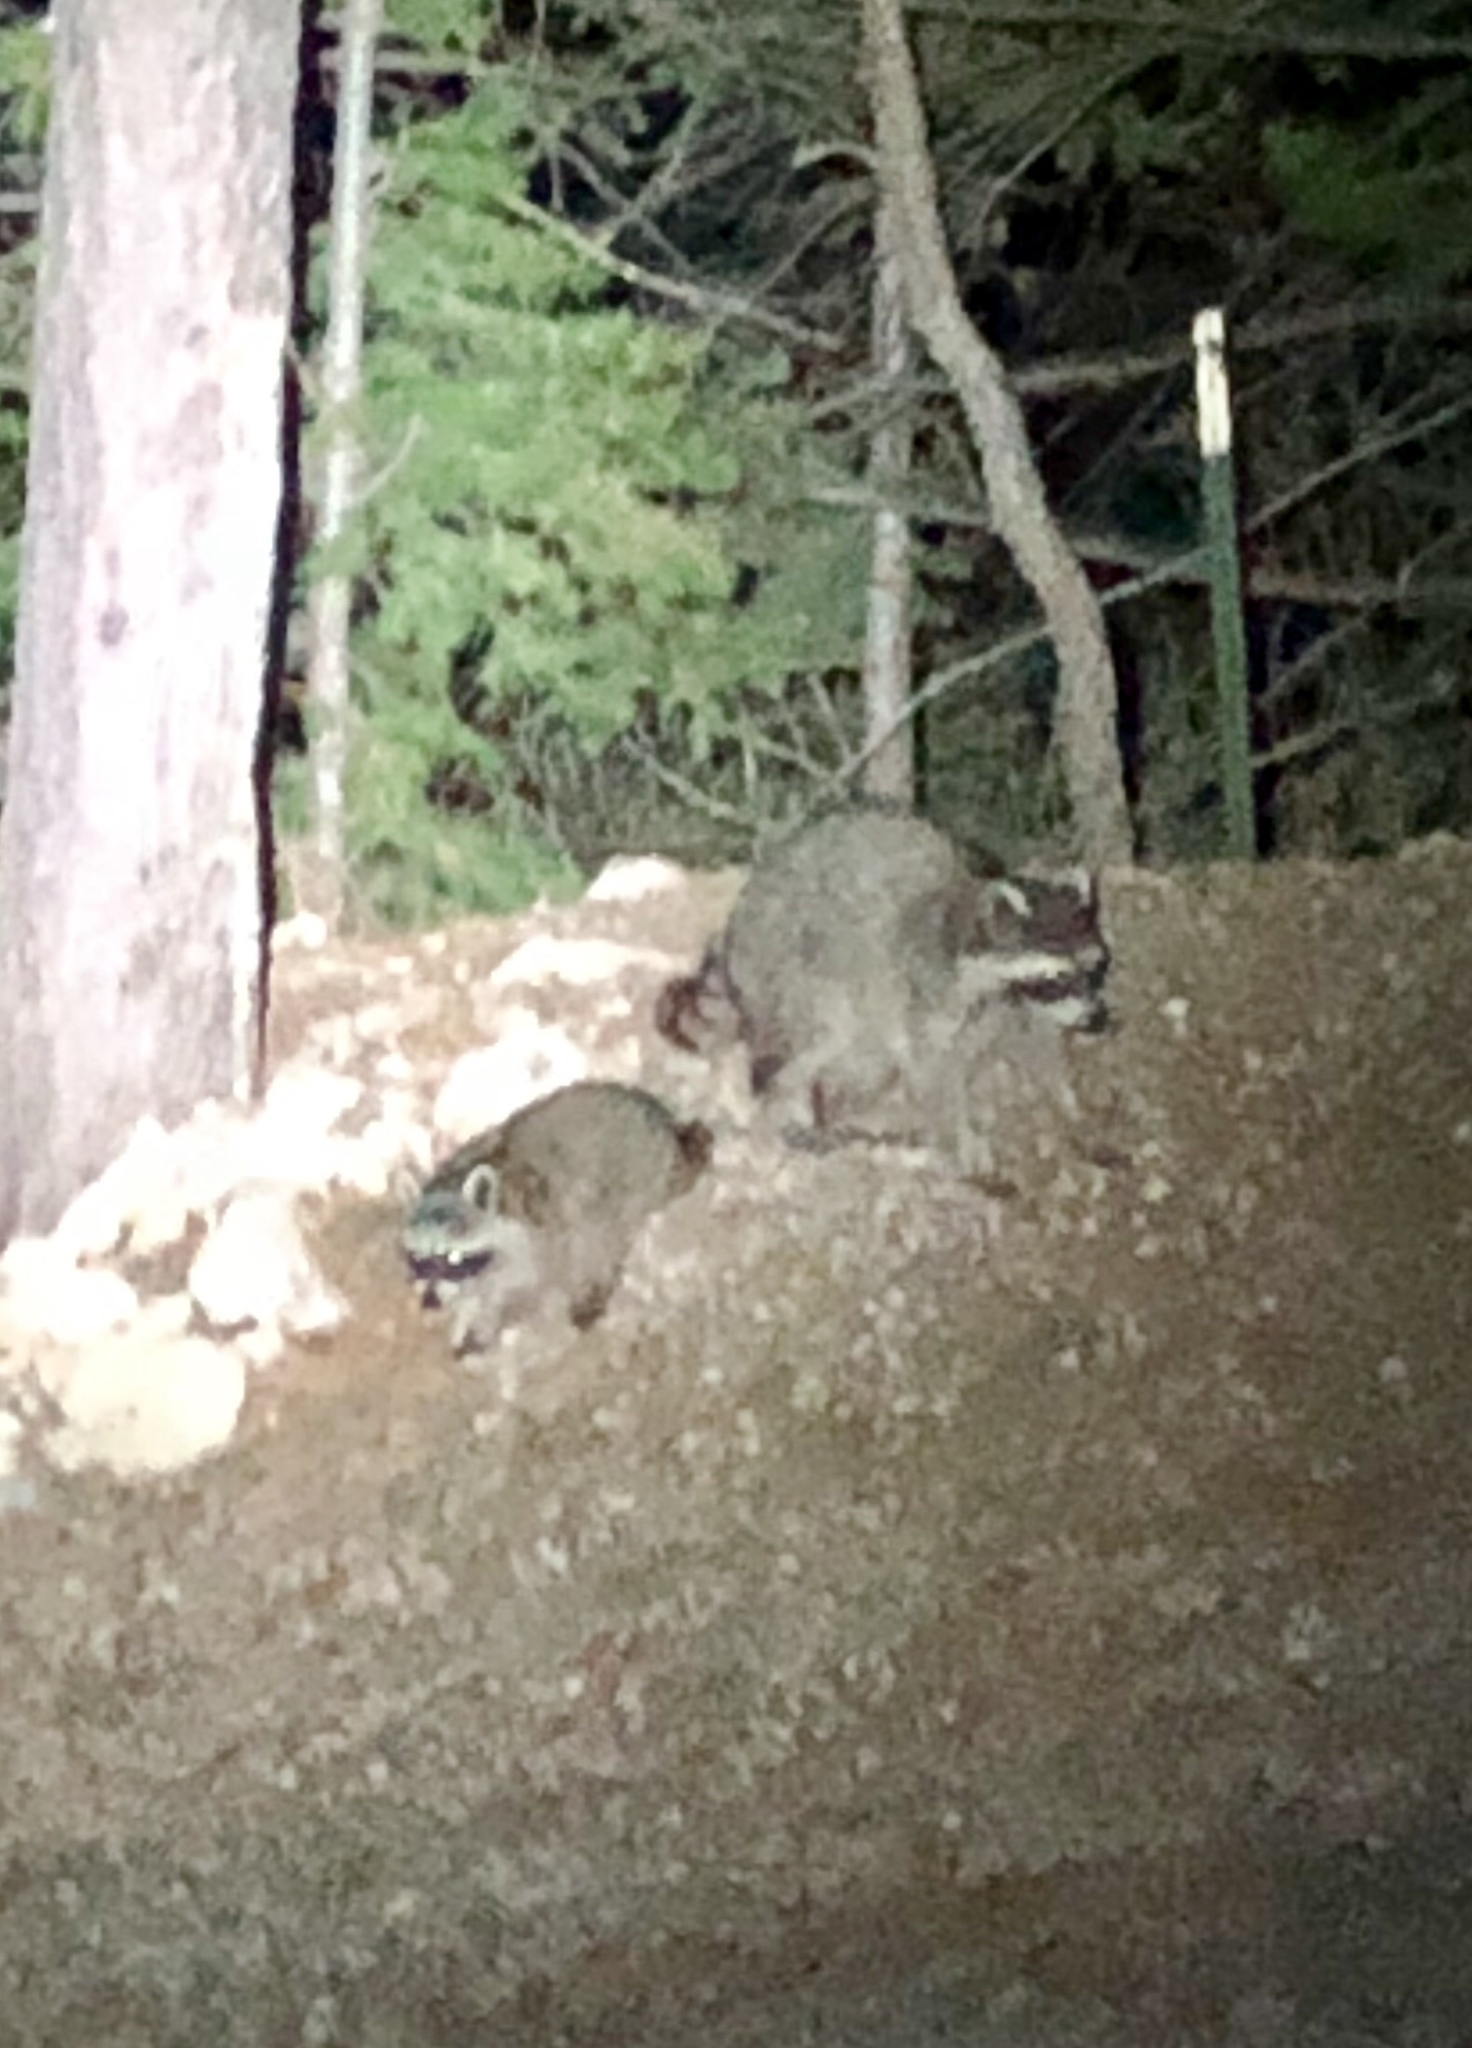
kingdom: Animalia
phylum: Chordata
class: Mammalia
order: Carnivora
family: Procyonidae
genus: Procyon
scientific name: Procyon lotor
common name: Raccoon
